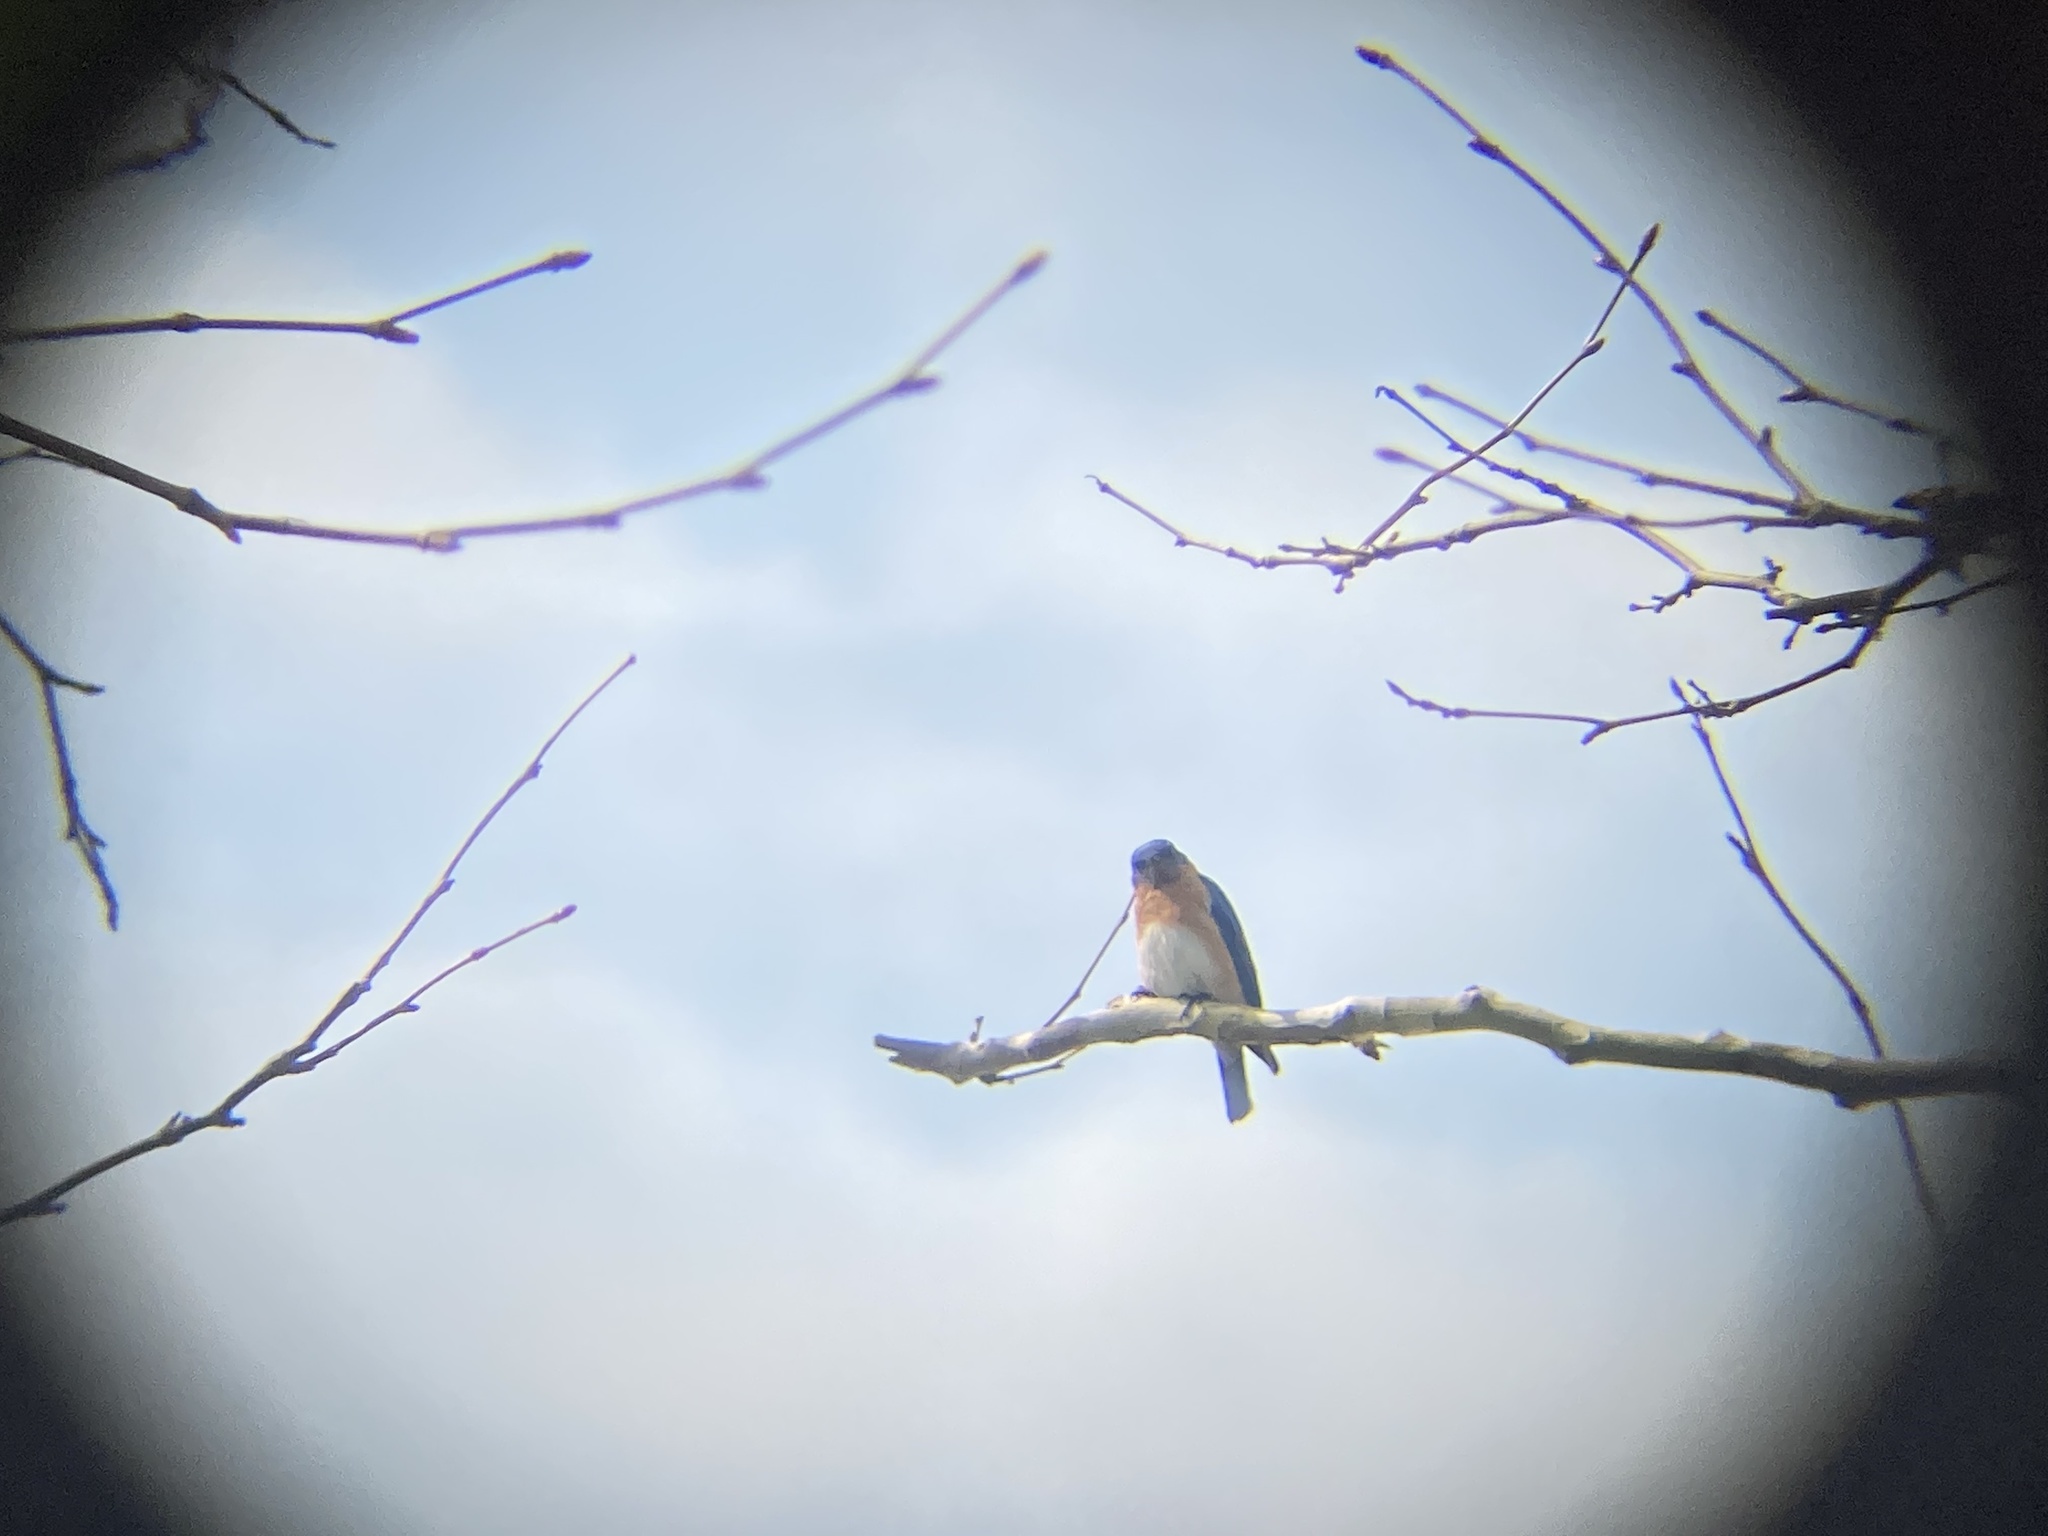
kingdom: Animalia
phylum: Chordata
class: Aves
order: Passeriformes
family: Turdidae
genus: Sialia
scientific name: Sialia sialis
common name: Eastern bluebird
